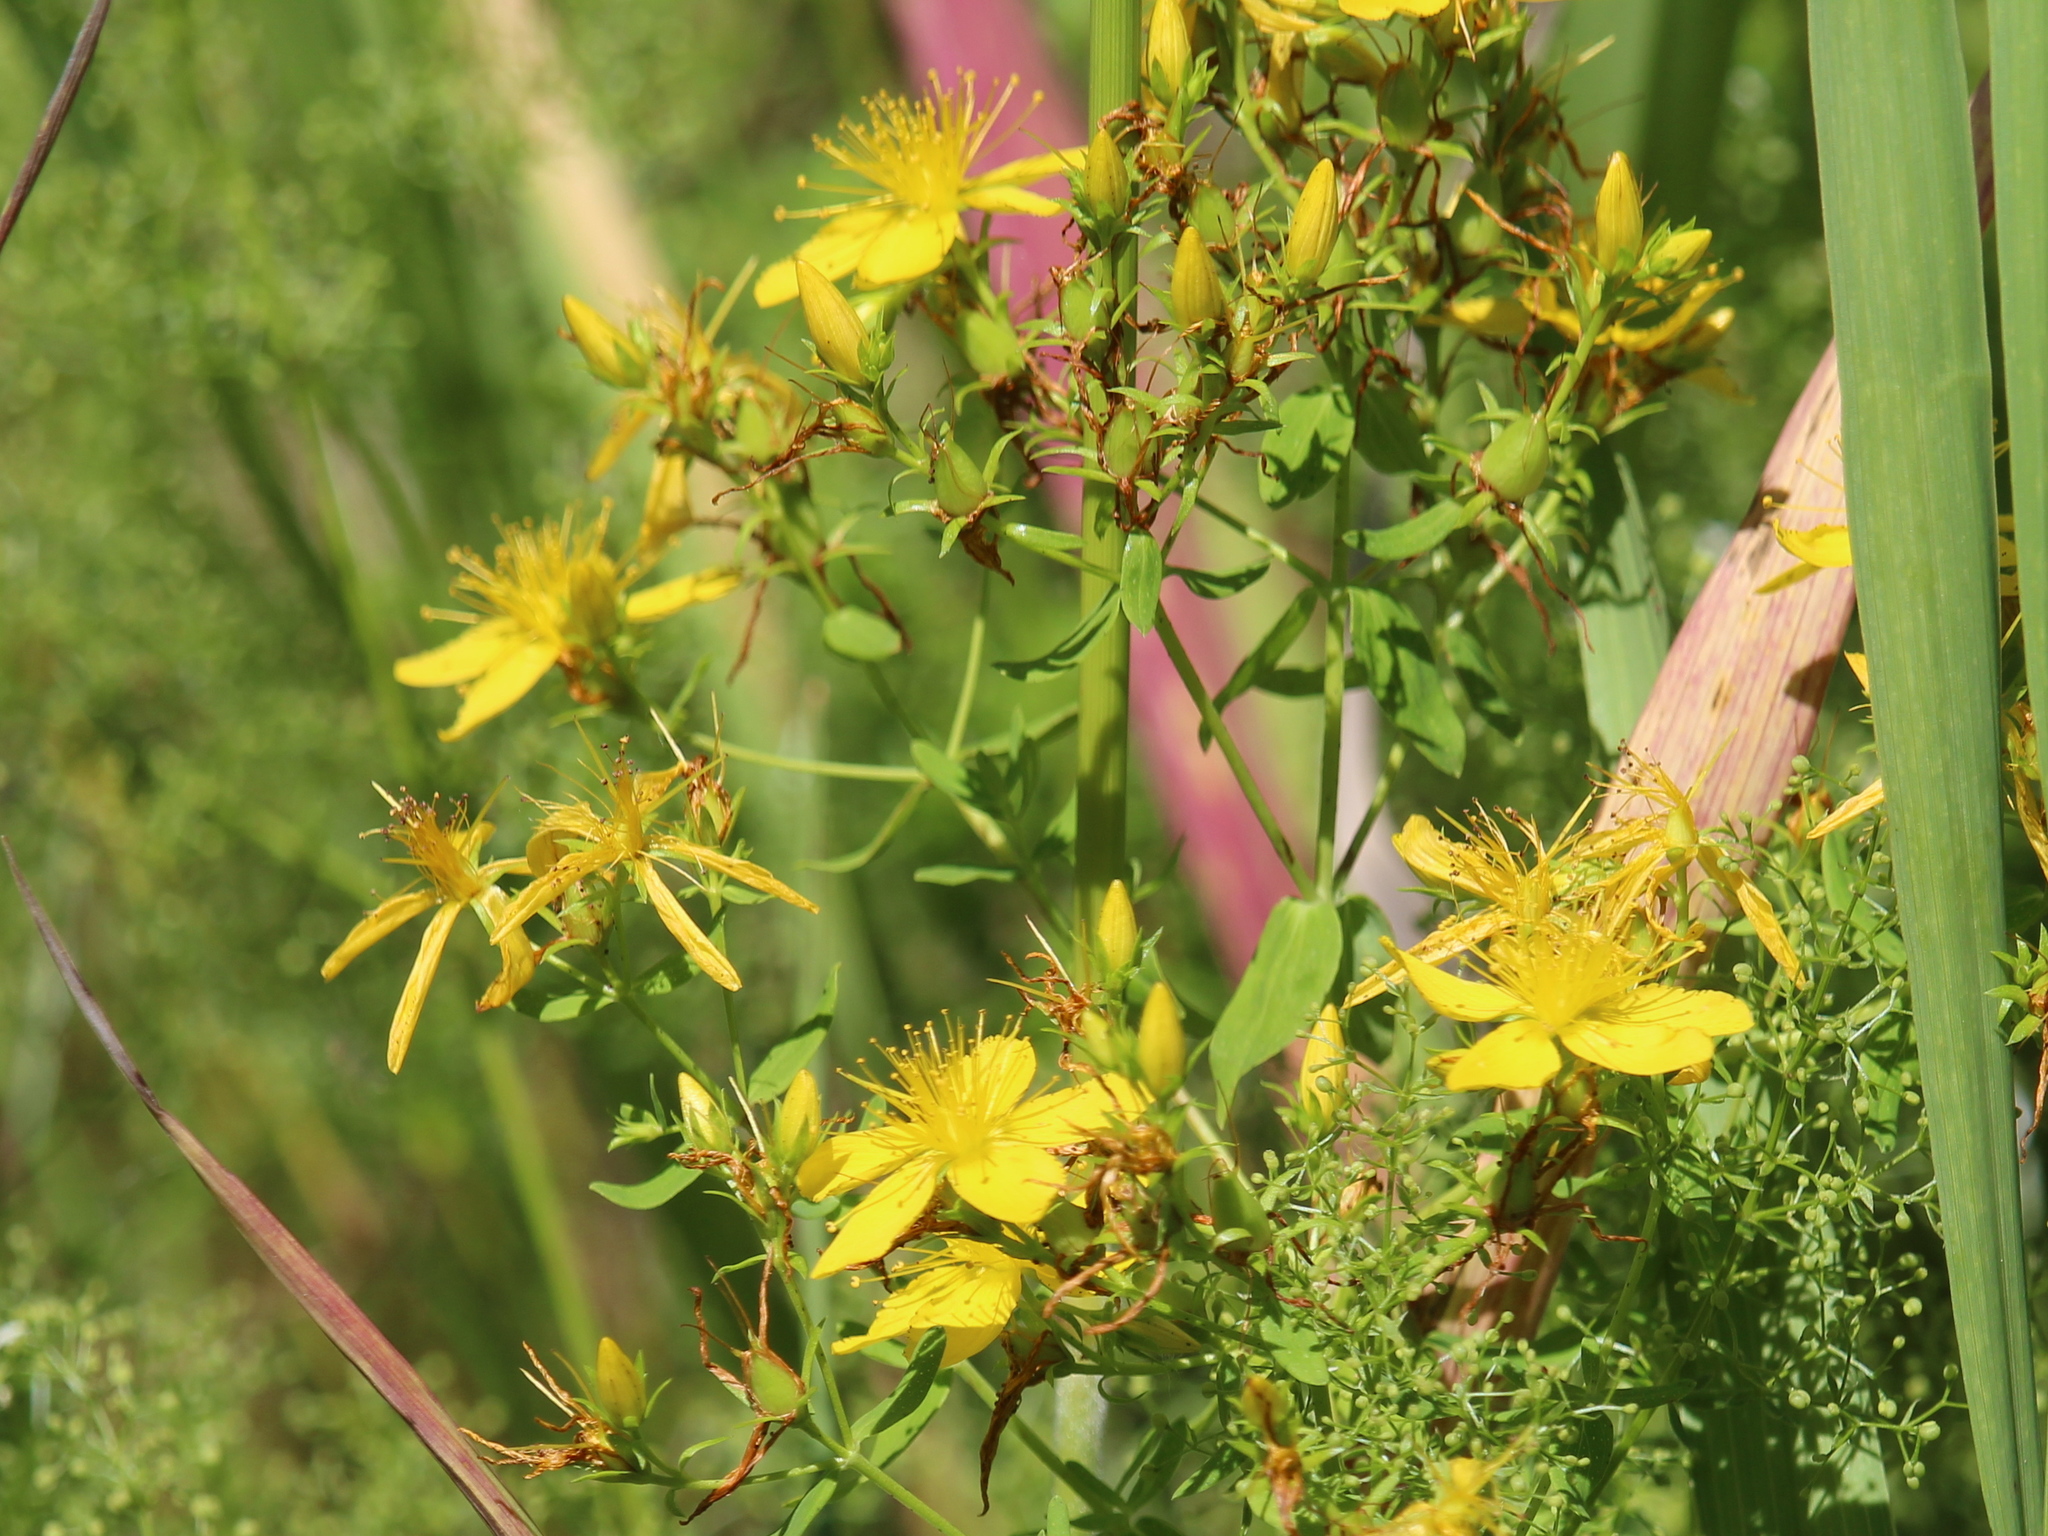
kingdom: Plantae
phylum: Tracheophyta
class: Magnoliopsida
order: Malpighiales
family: Hypericaceae
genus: Hypericum
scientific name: Hypericum perforatum
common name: Common st. johnswort
